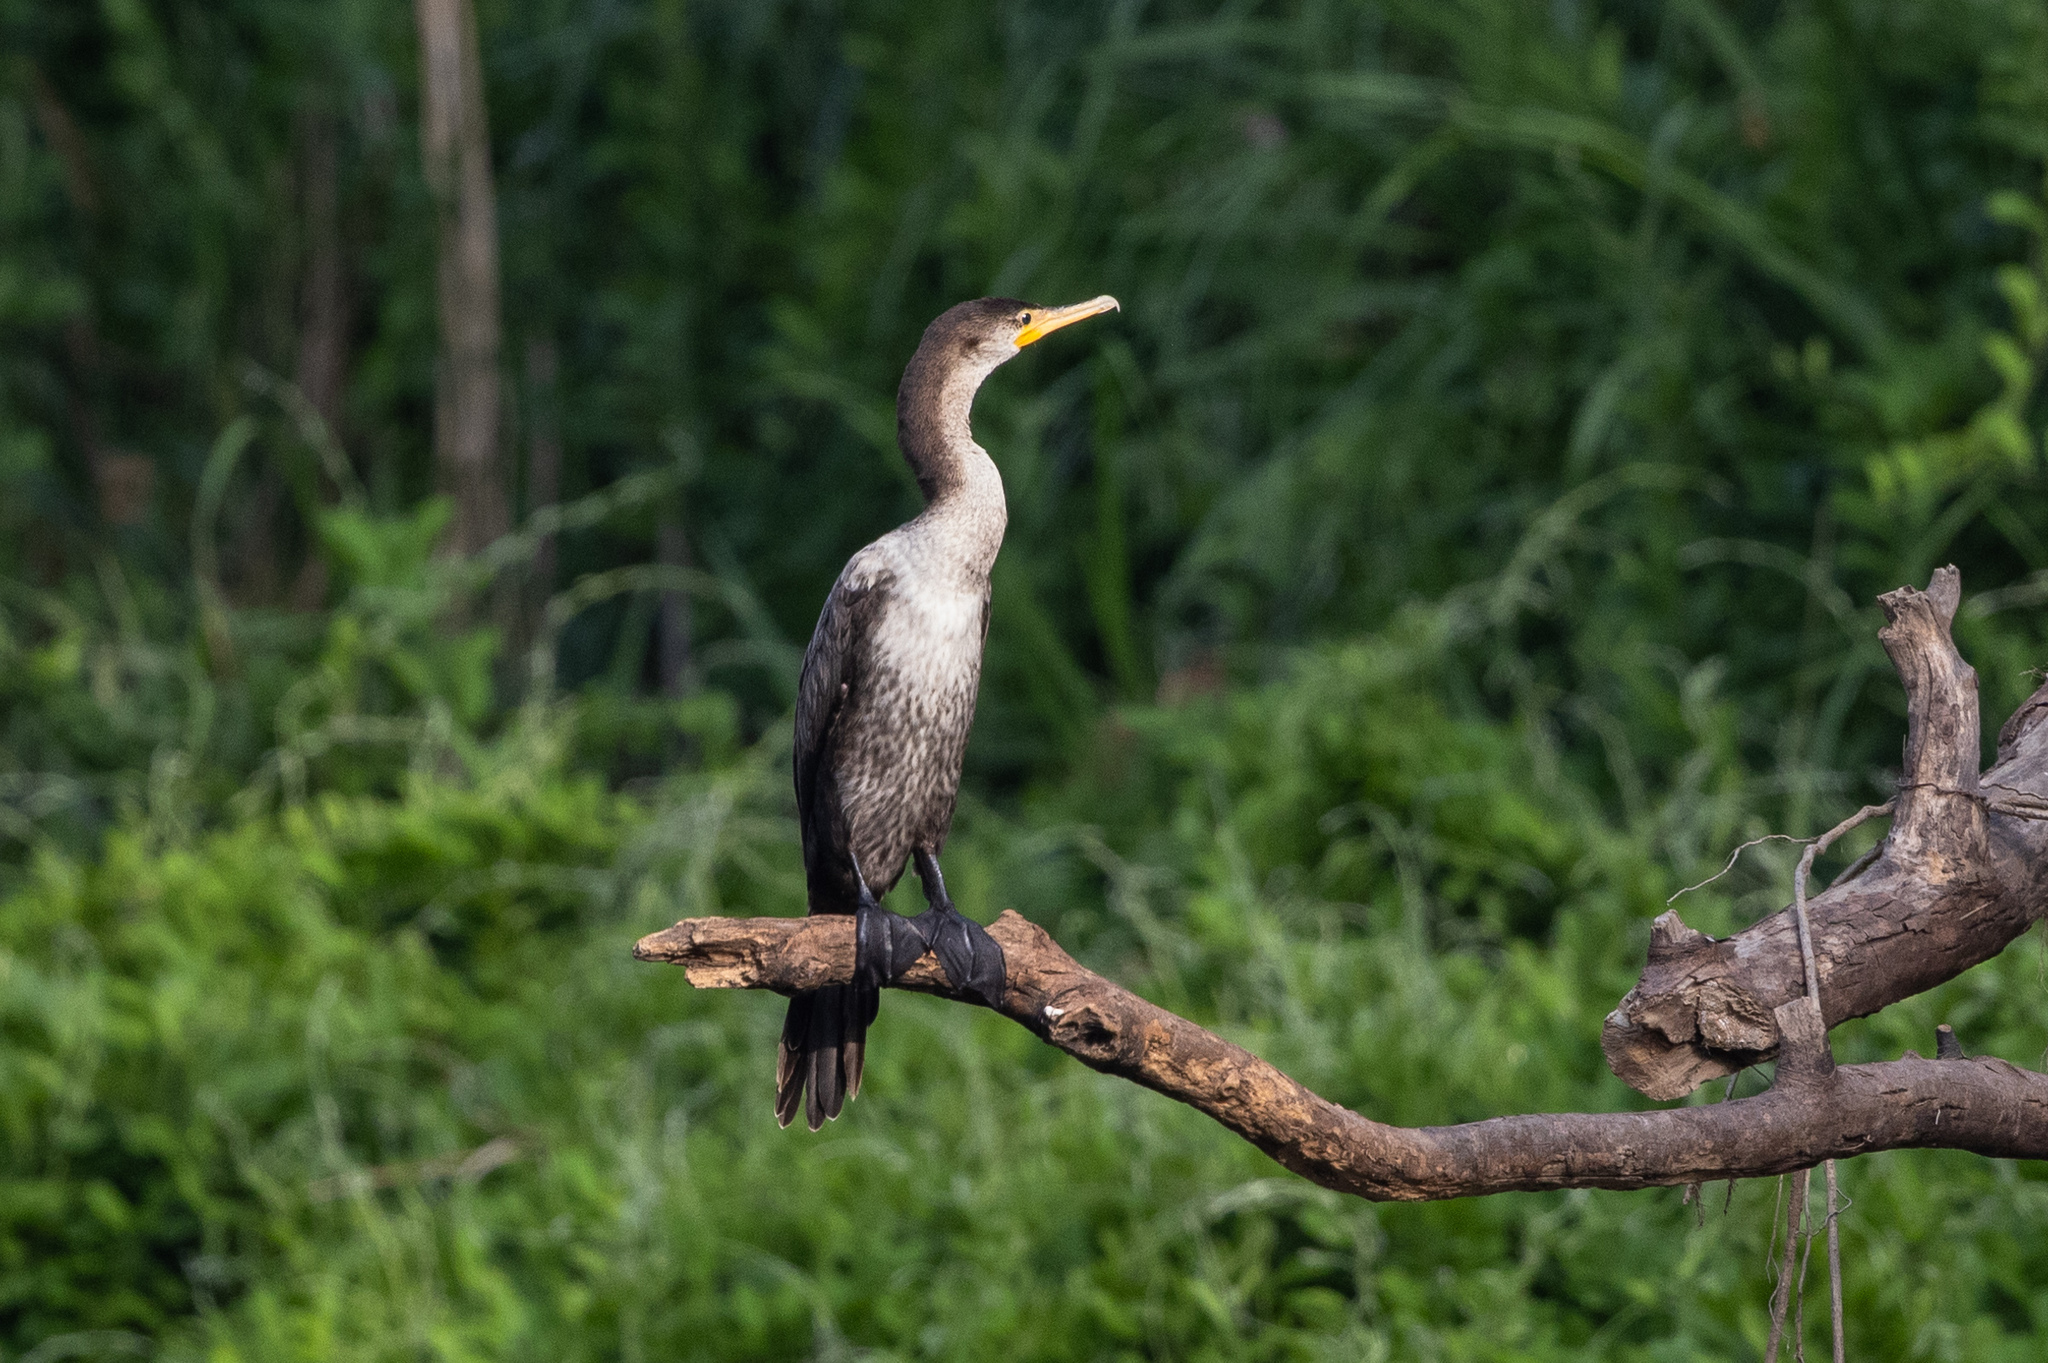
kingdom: Animalia
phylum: Chordata
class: Aves
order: Suliformes
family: Phalacrocoracidae
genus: Phalacrocorax
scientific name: Phalacrocorax brasilianus
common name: Neotropic cormorant
